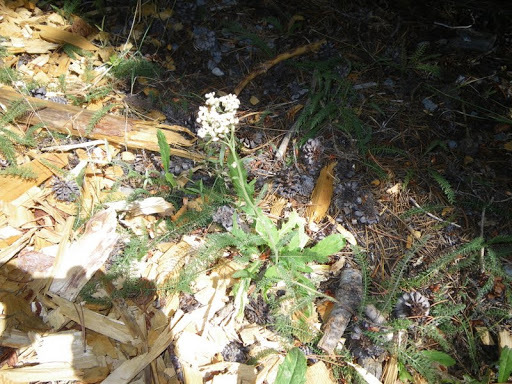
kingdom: Plantae
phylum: Tracheophyta
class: Magnoliopsida
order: Asterales
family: Asteraceae
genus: Achillea
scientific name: Achillea millefolium
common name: Yarrow
